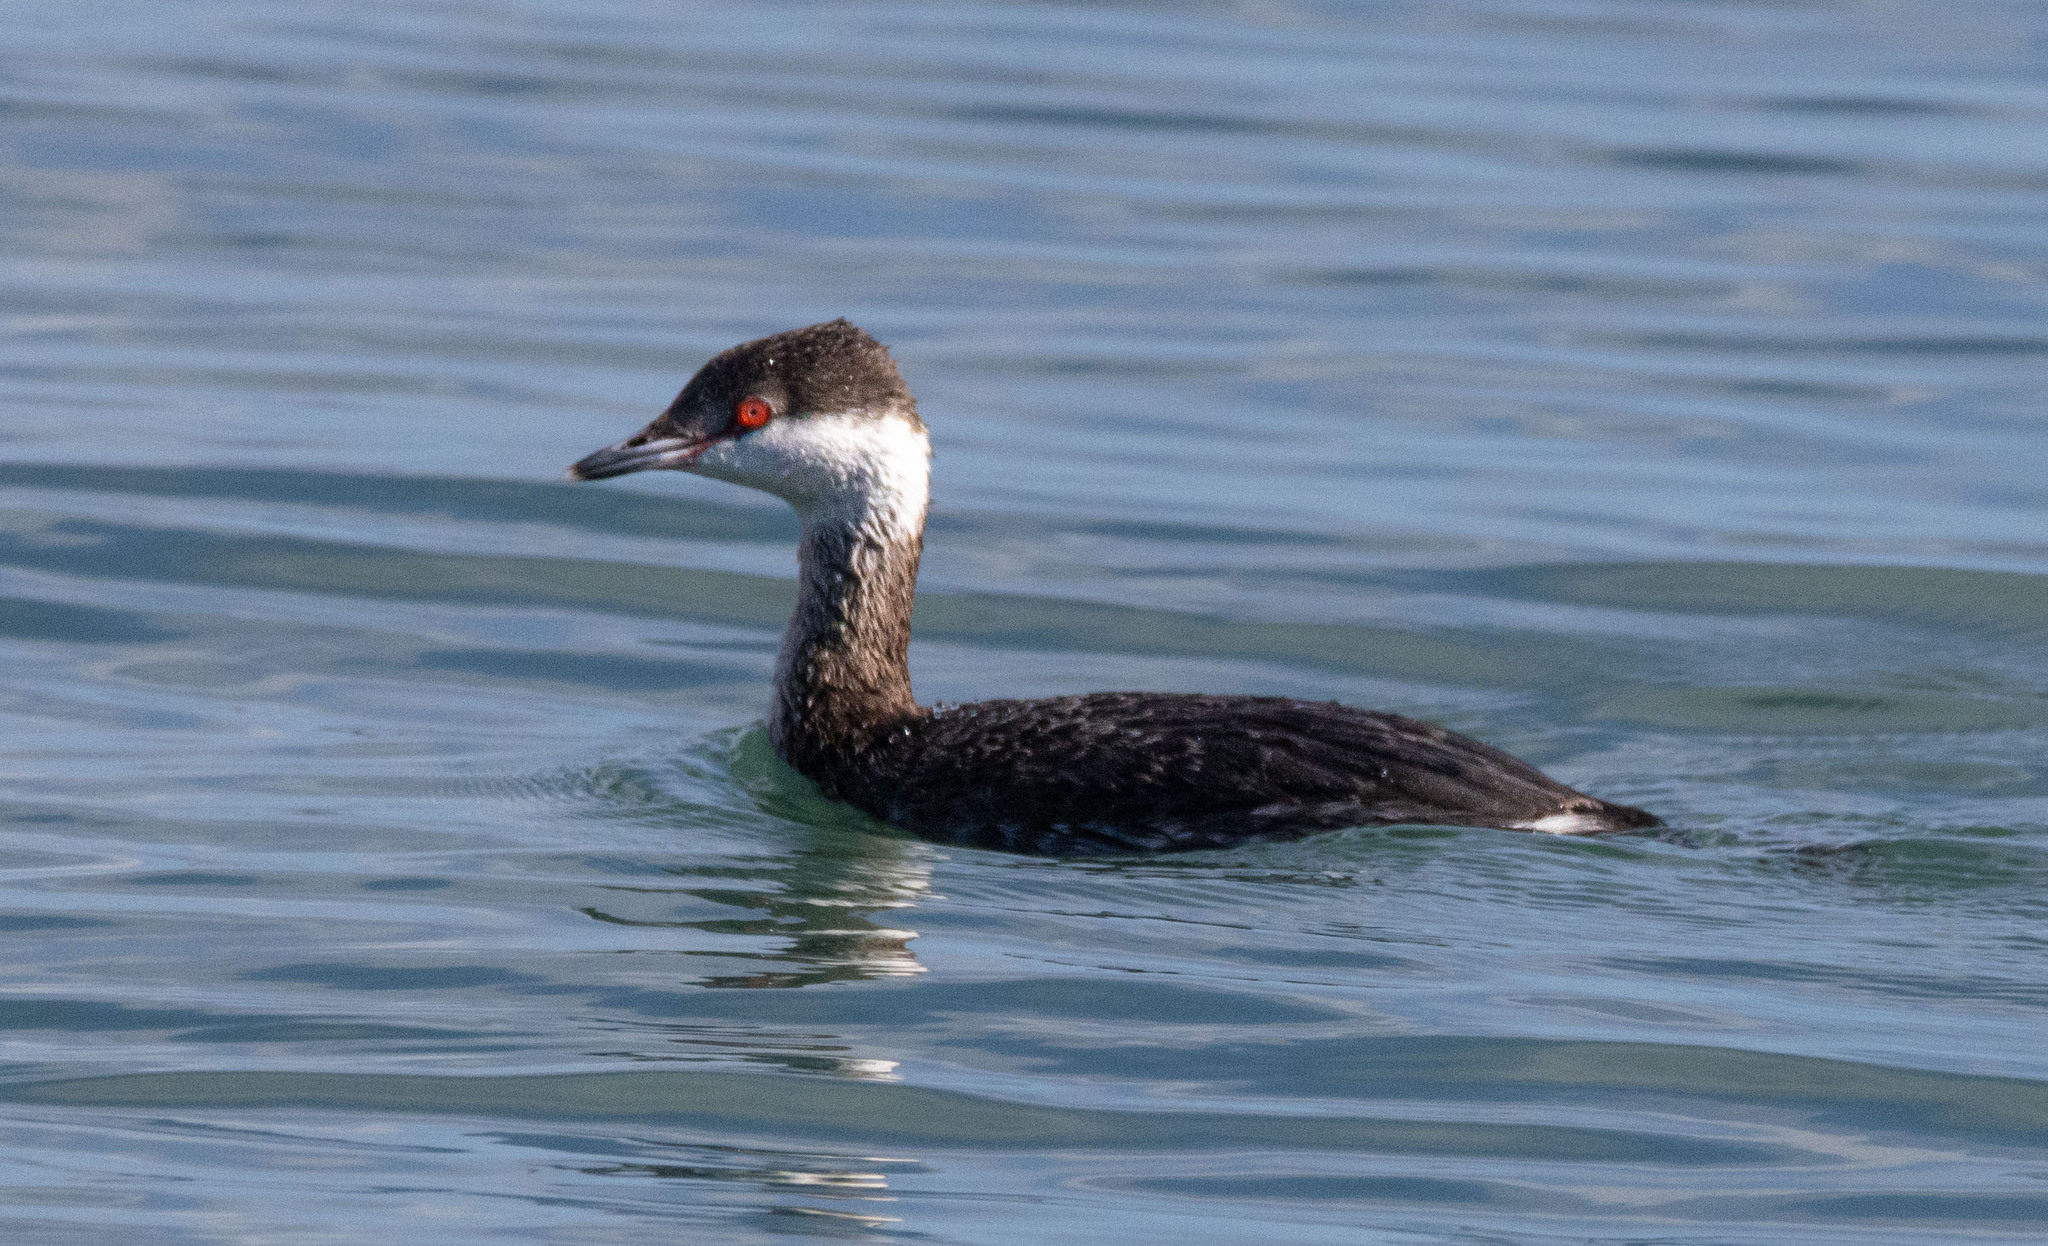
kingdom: Animalia
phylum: Chordata
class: Aves
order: Podicipediformes
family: Podicipedidae
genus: Podiceps
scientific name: Podiceps auritus
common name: Horned grebe
